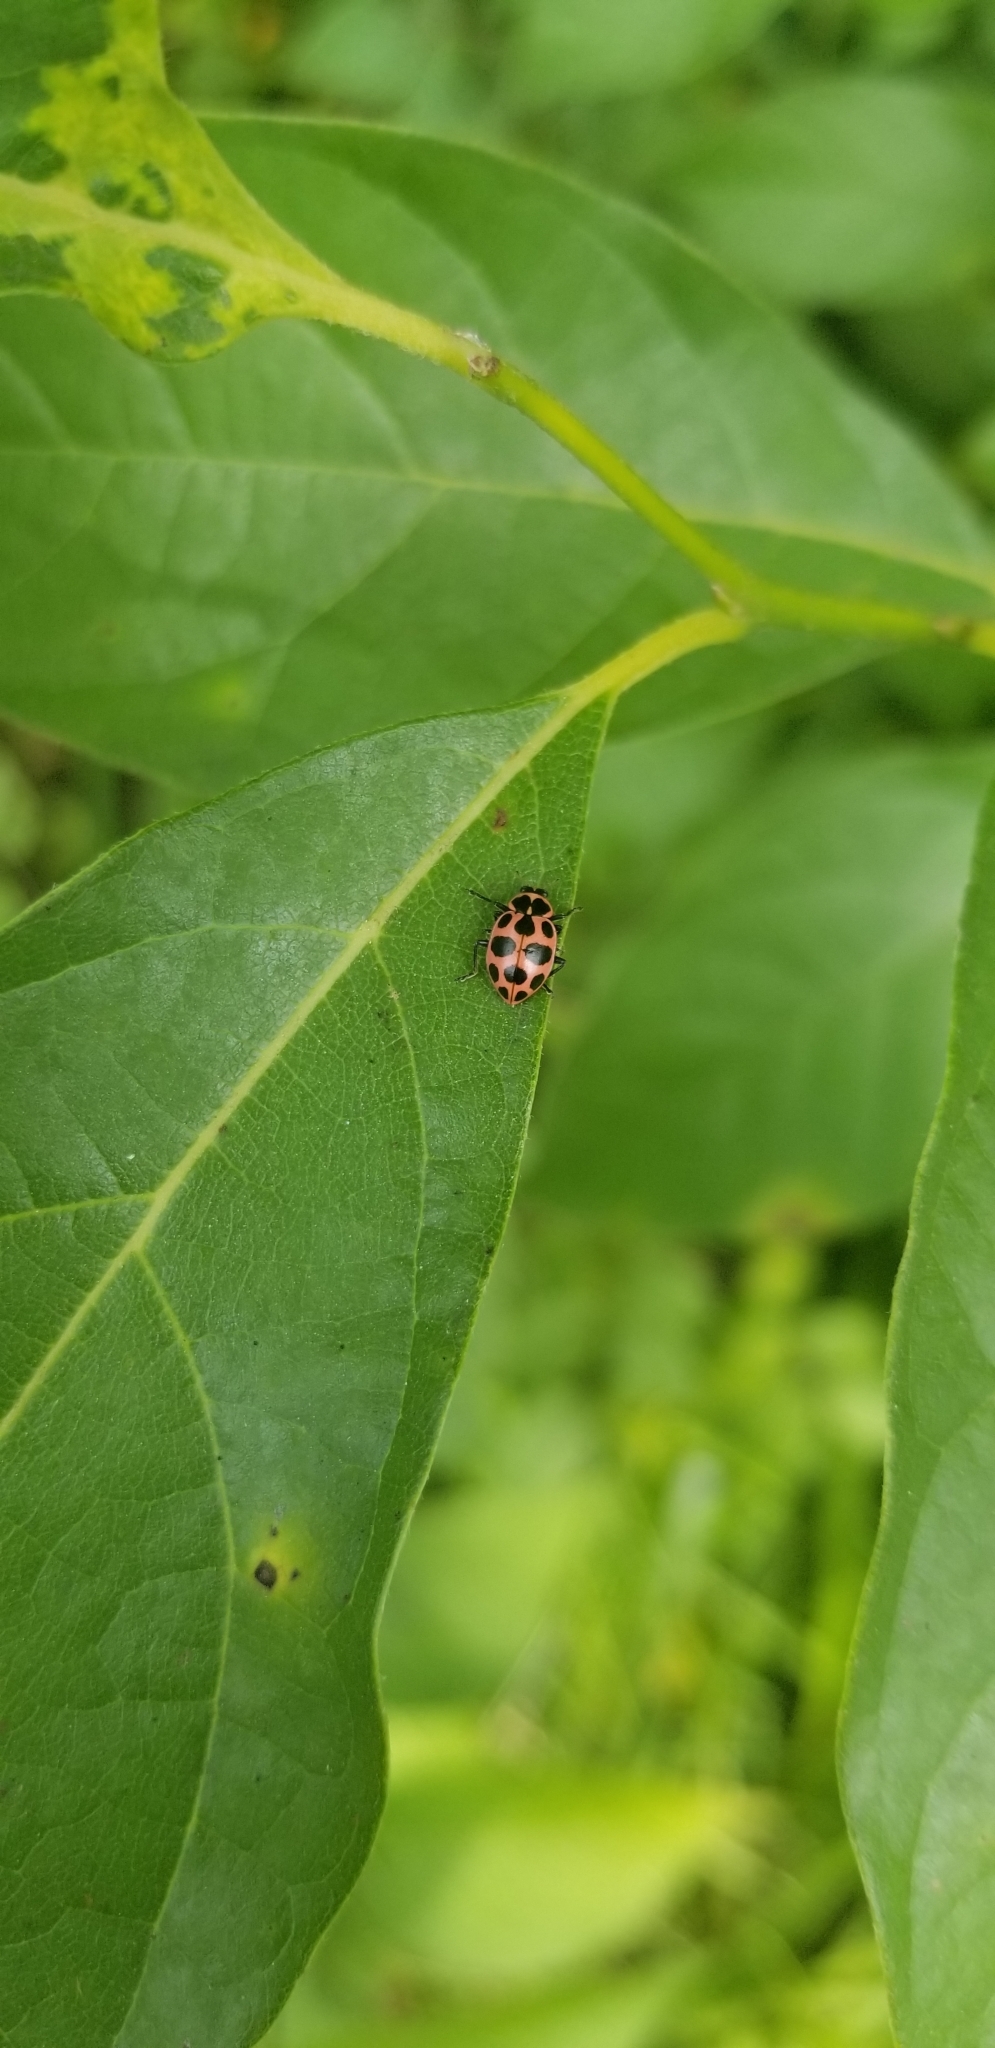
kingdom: Animalia
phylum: Arthropoda
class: Insecta
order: Coleoptera
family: Coccinellidae
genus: Coleomegilla
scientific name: Coleomegilla maculata
